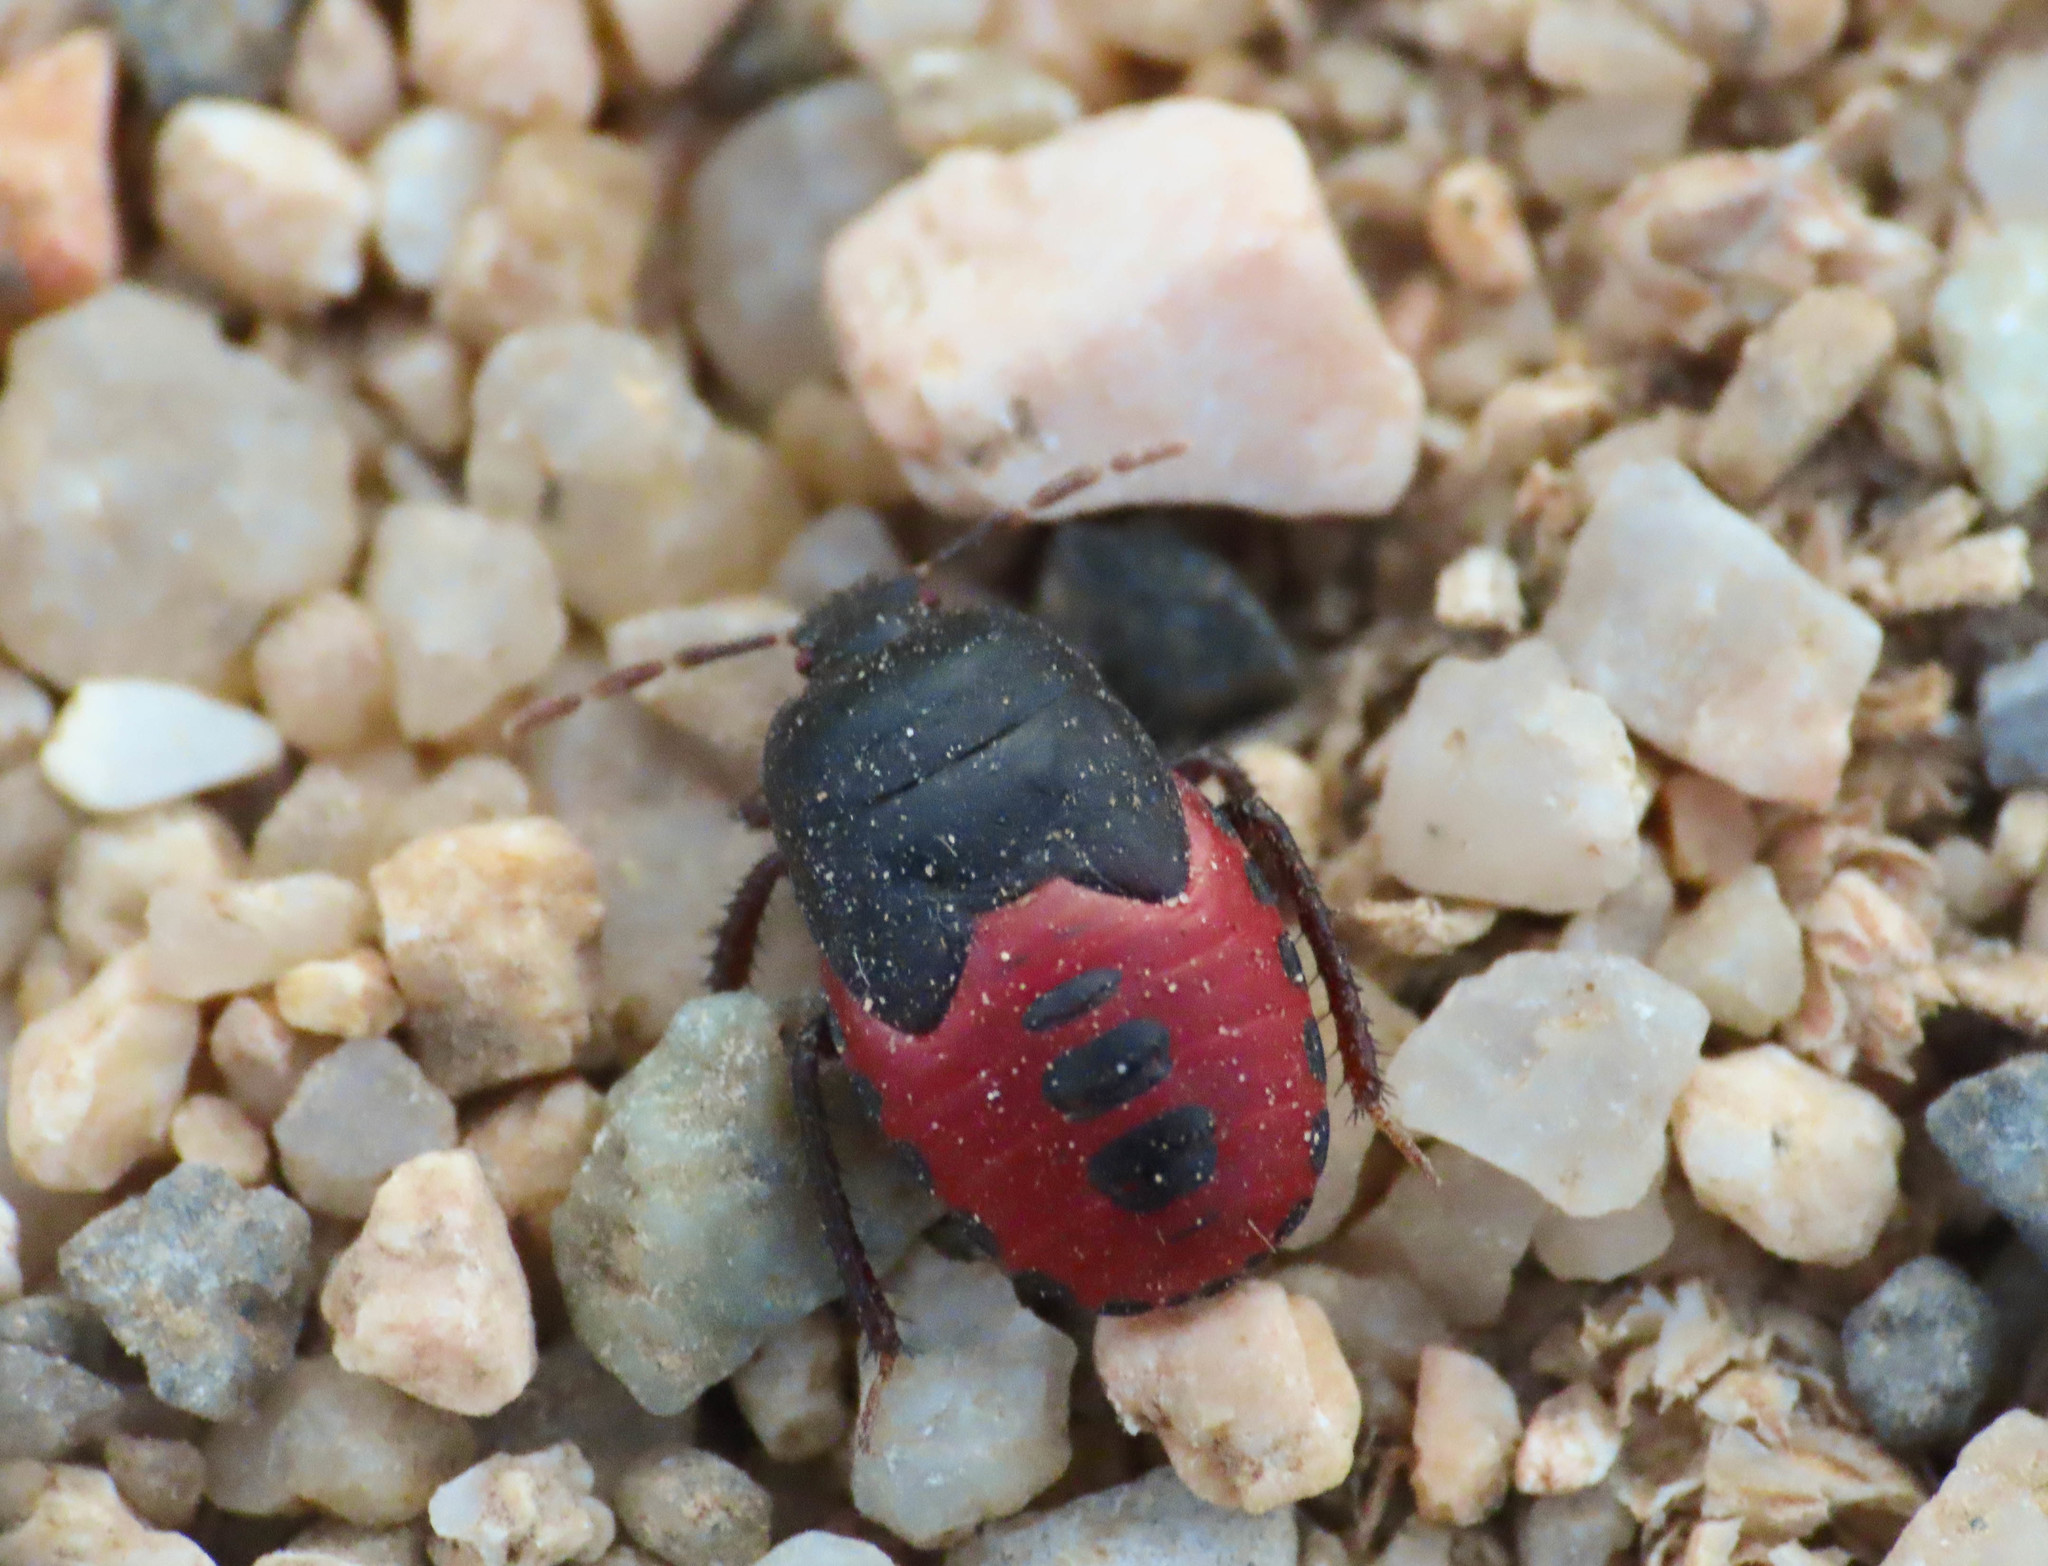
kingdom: Animalia
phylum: Arthropoda
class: Insecta
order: Hemiptera
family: Cydnidae
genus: Cydnus
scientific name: Cydnus aterrimus
